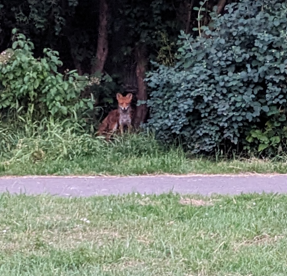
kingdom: Animalia
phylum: Chordata
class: Mammalia
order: Carnivora
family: Canidae
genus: Vulpes
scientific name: Vulpes vulpes
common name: Red fox
